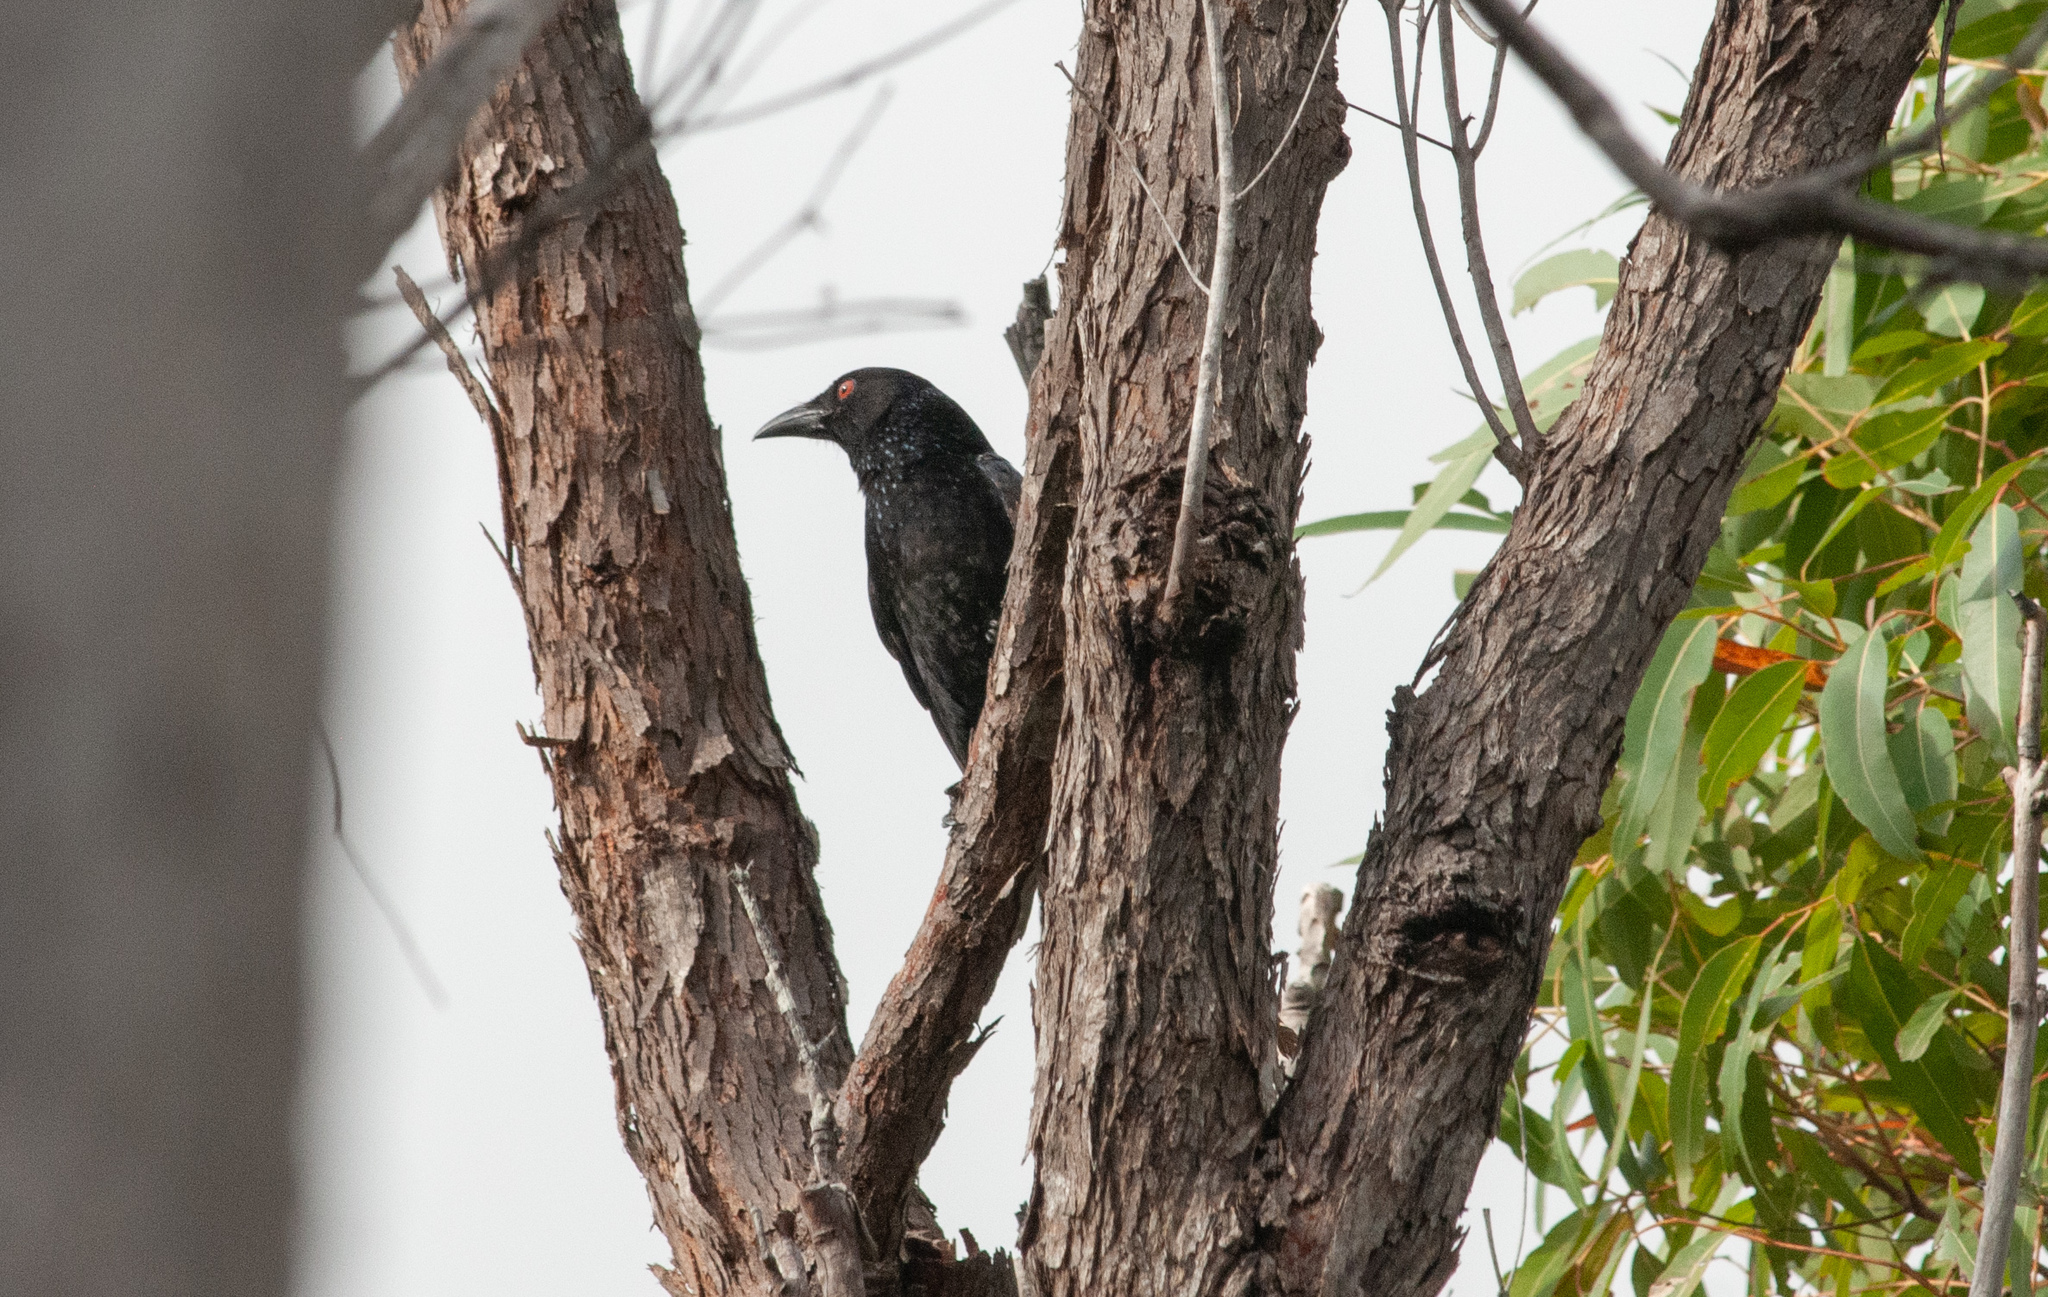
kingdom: Animalia
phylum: Chordata
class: Aves
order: Passeriformes
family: Dicruridae
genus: Dicrurus
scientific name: Dicrurus bracteatus
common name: Spangled drongo
